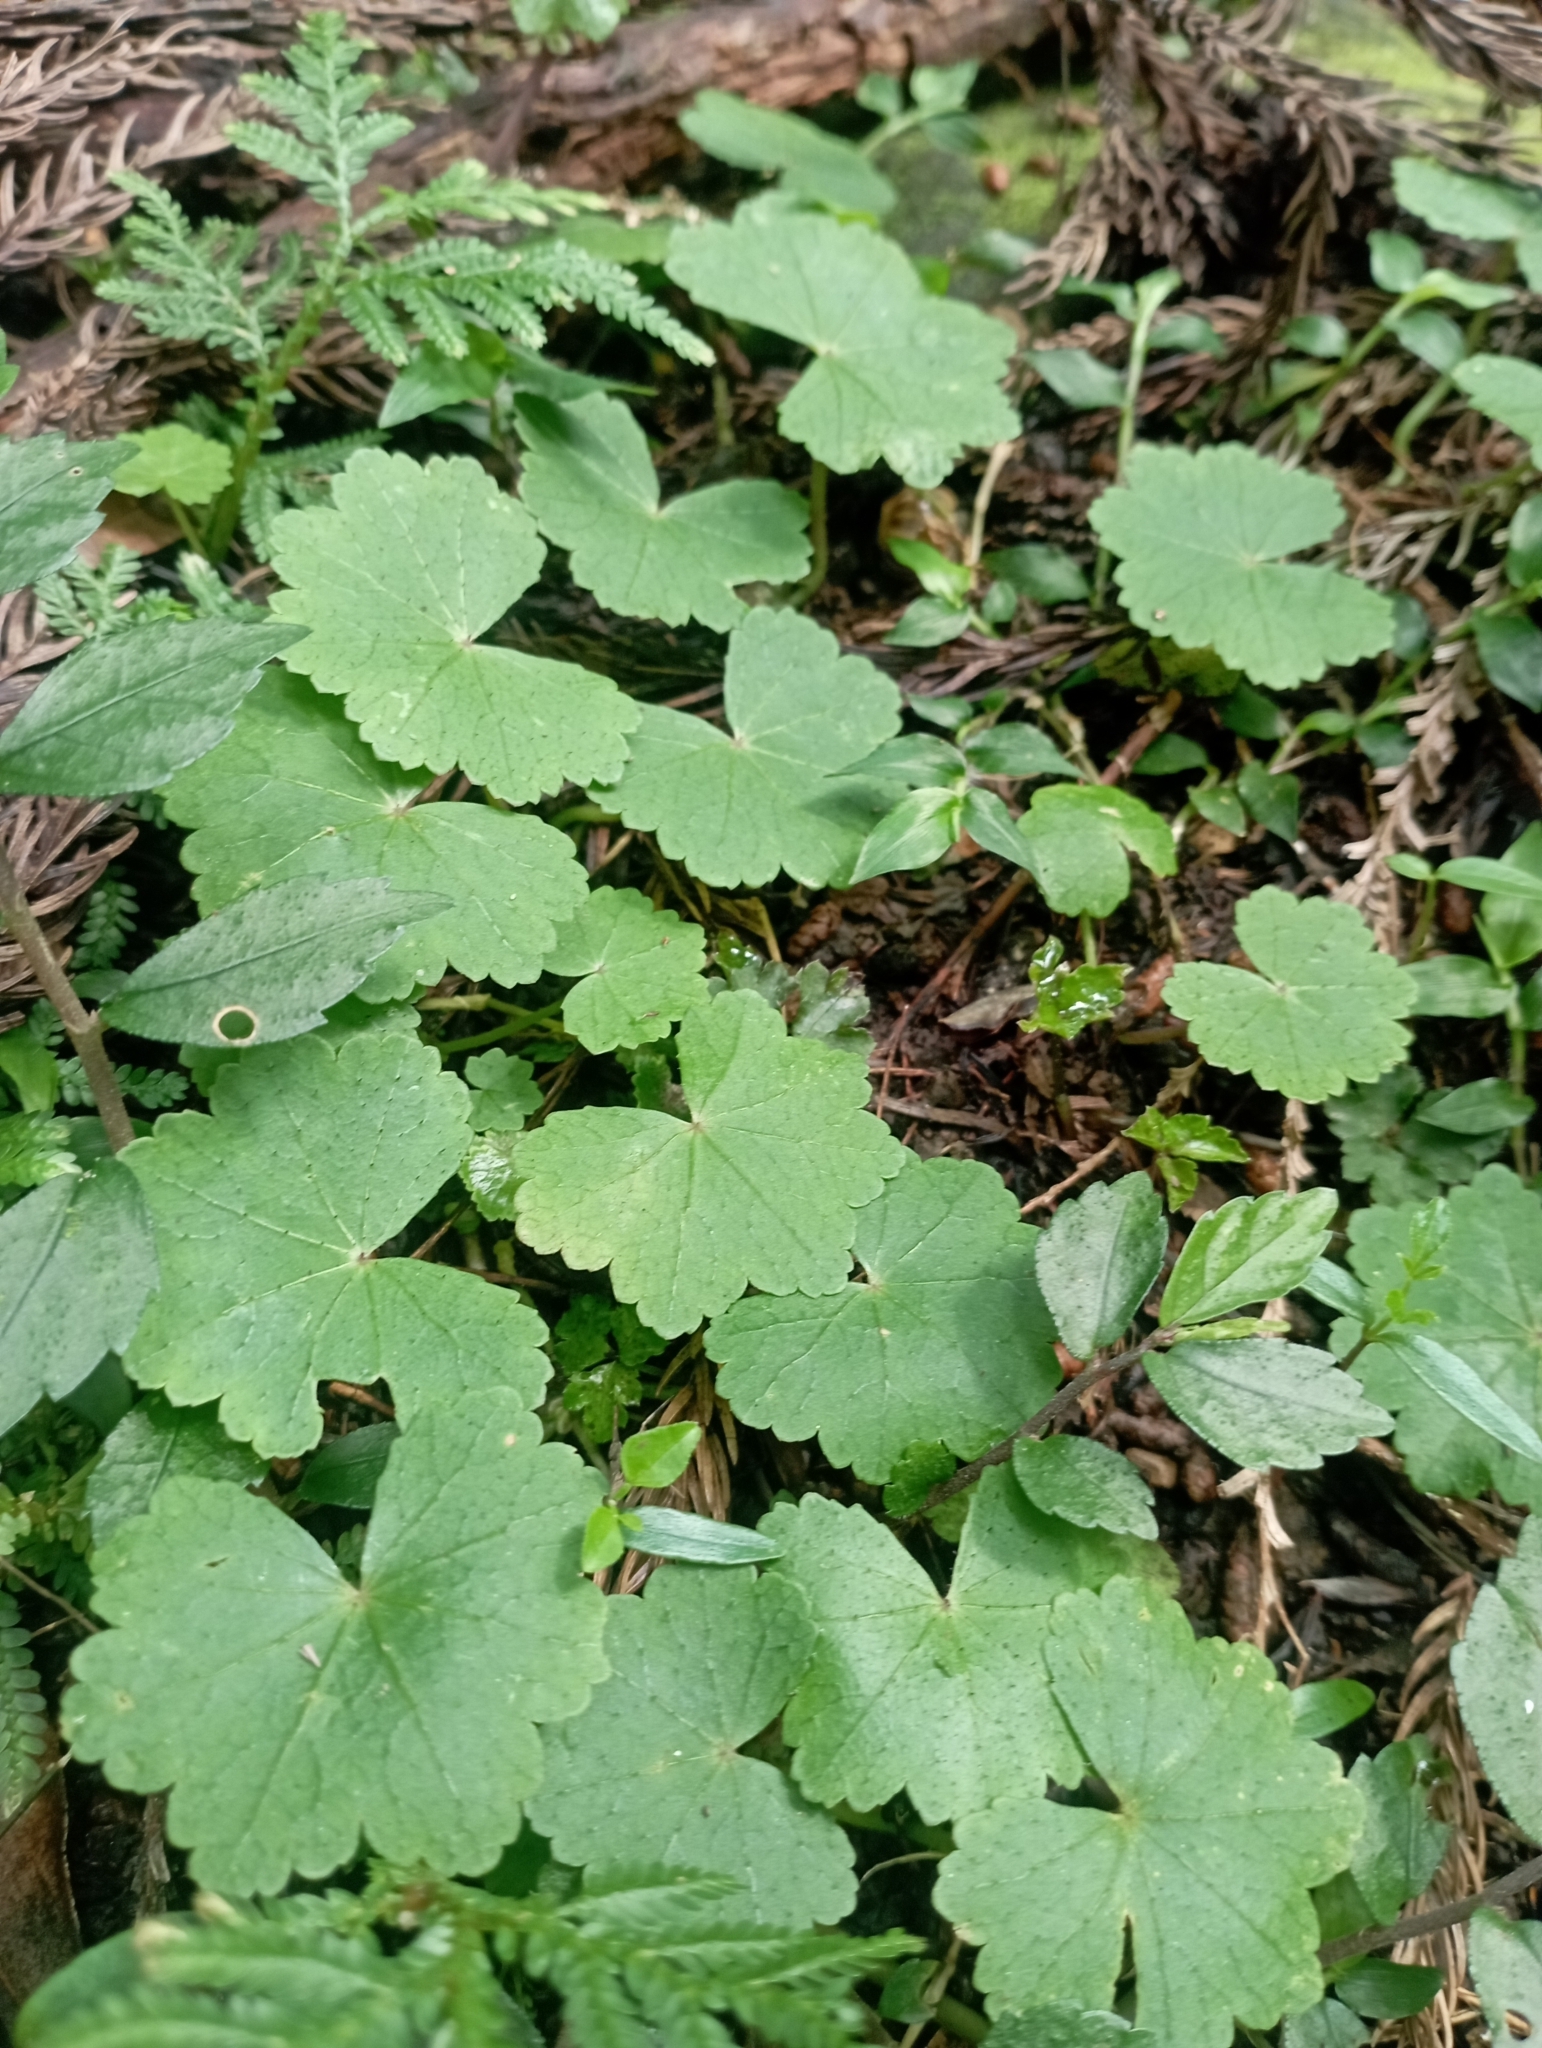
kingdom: Plantae
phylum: Tracheophyta
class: Magnoliopsida
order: Apiales
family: Araliaceae
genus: Hydrocotyle
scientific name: Hydrocotyle nepalensis
